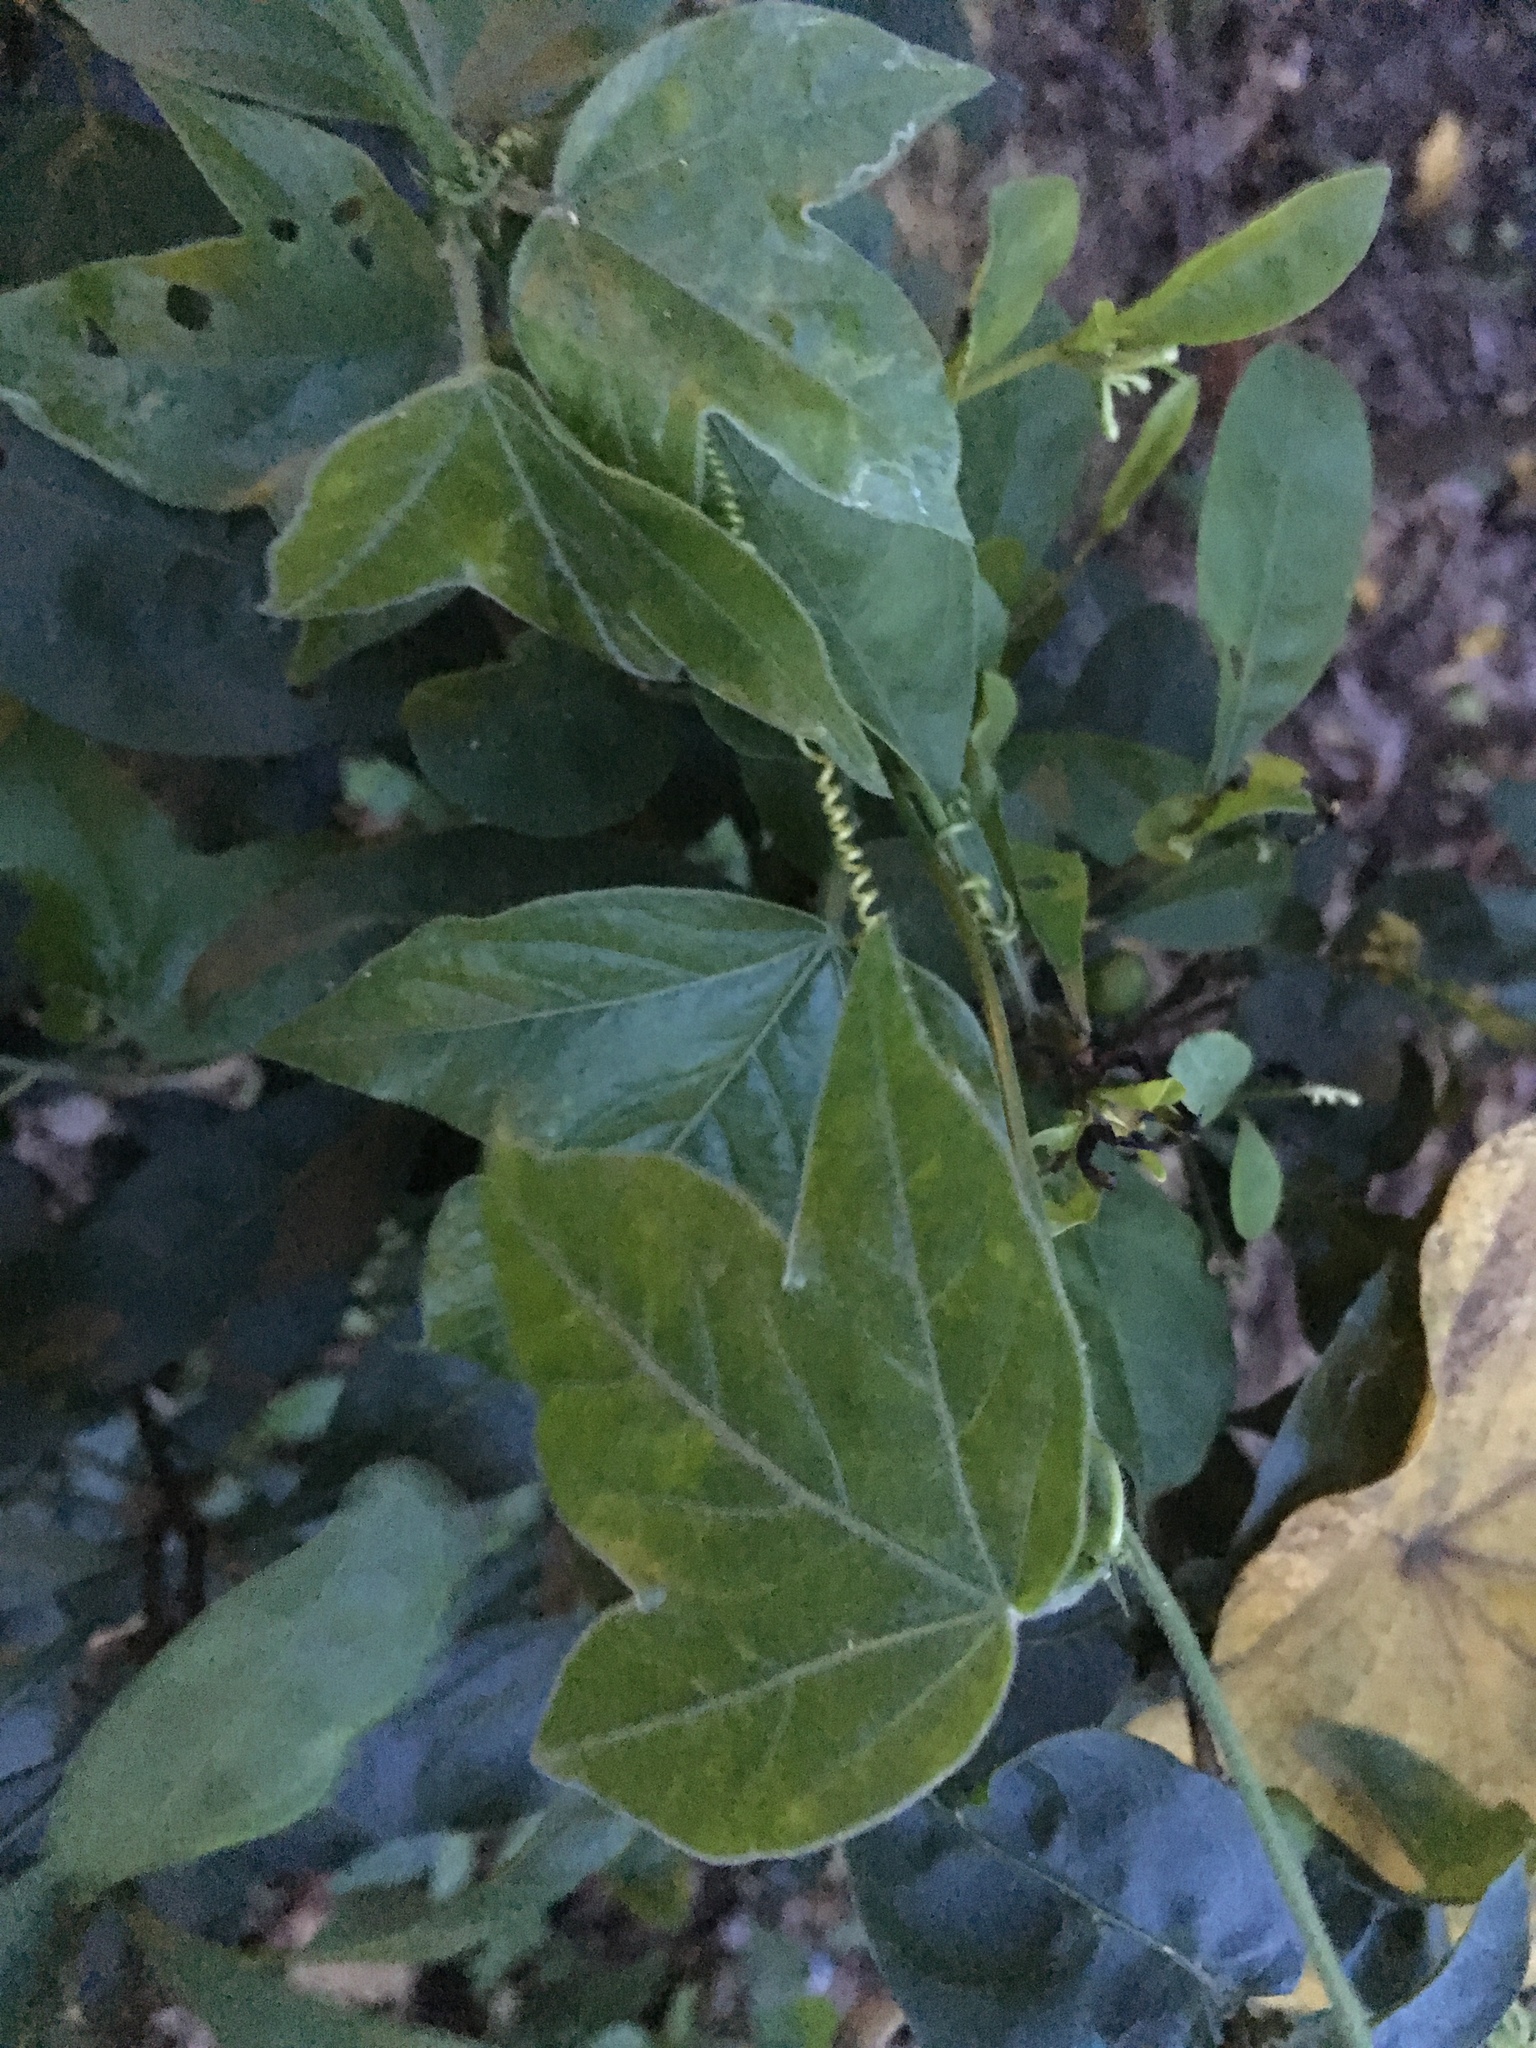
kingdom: Plantae
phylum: Tracheophyta
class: Magnoliopsida
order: Malpighiales
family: Passifloraceae
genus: Passiflora
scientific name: Passiflora suberosa
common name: Wild passionfruit
